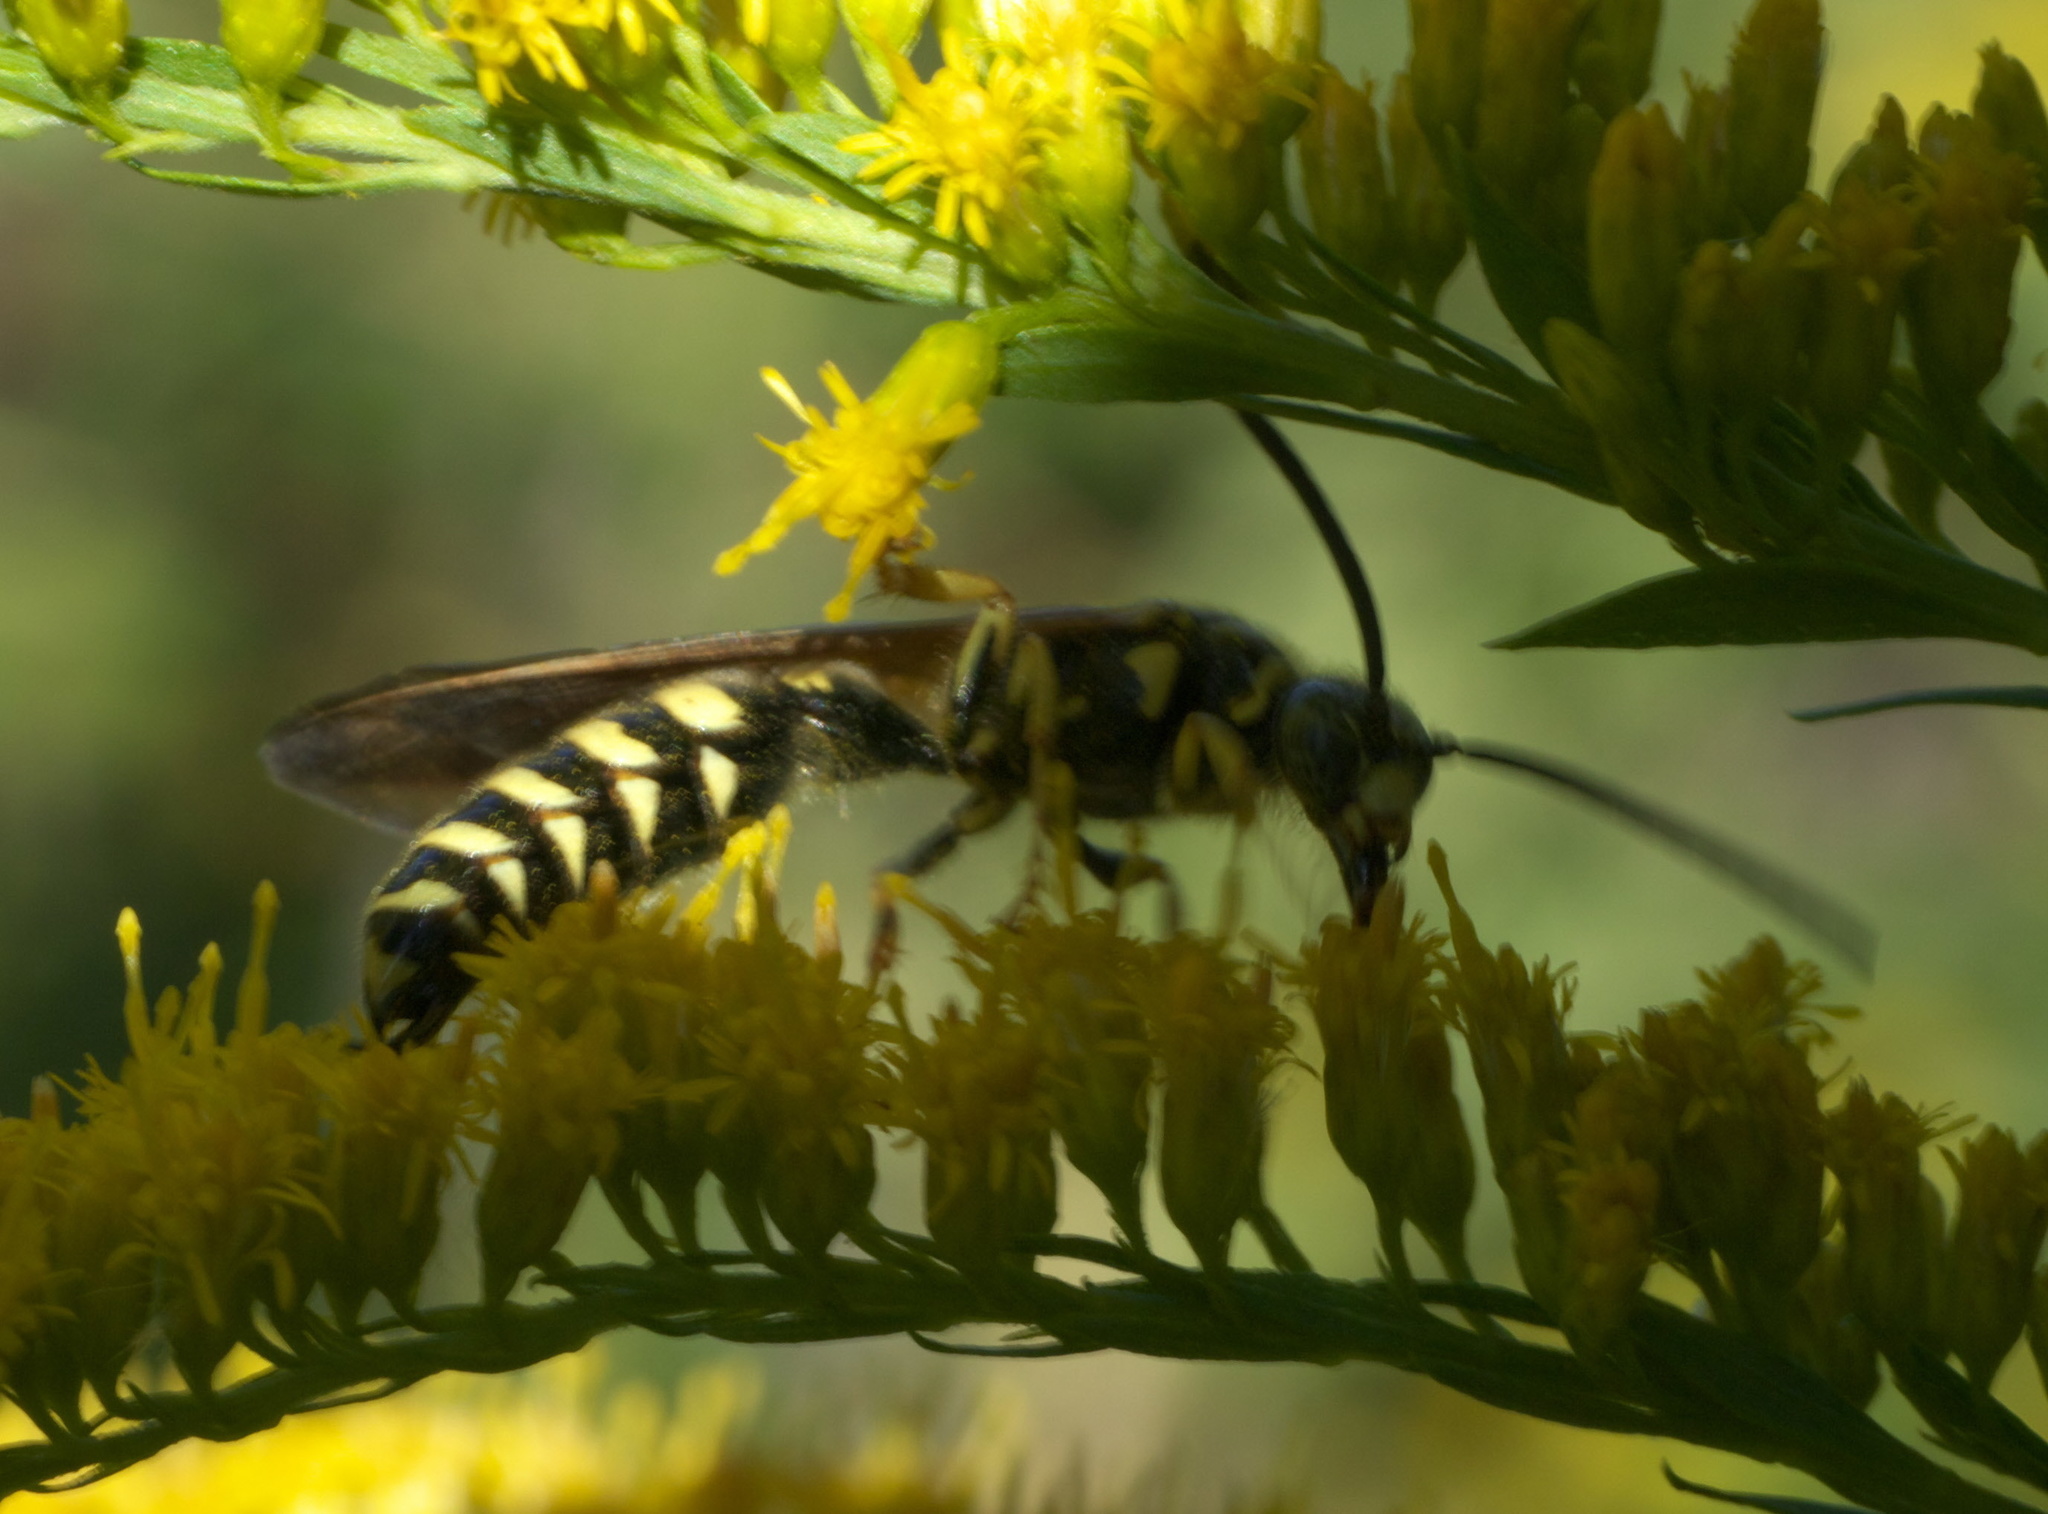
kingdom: Animalia
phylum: Arthropoda
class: Insecta
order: Hymenoptera
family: Tiphiidae
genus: Myzinum
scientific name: Myzinum quinquecinctum
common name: Five-banded thynnid wasp
